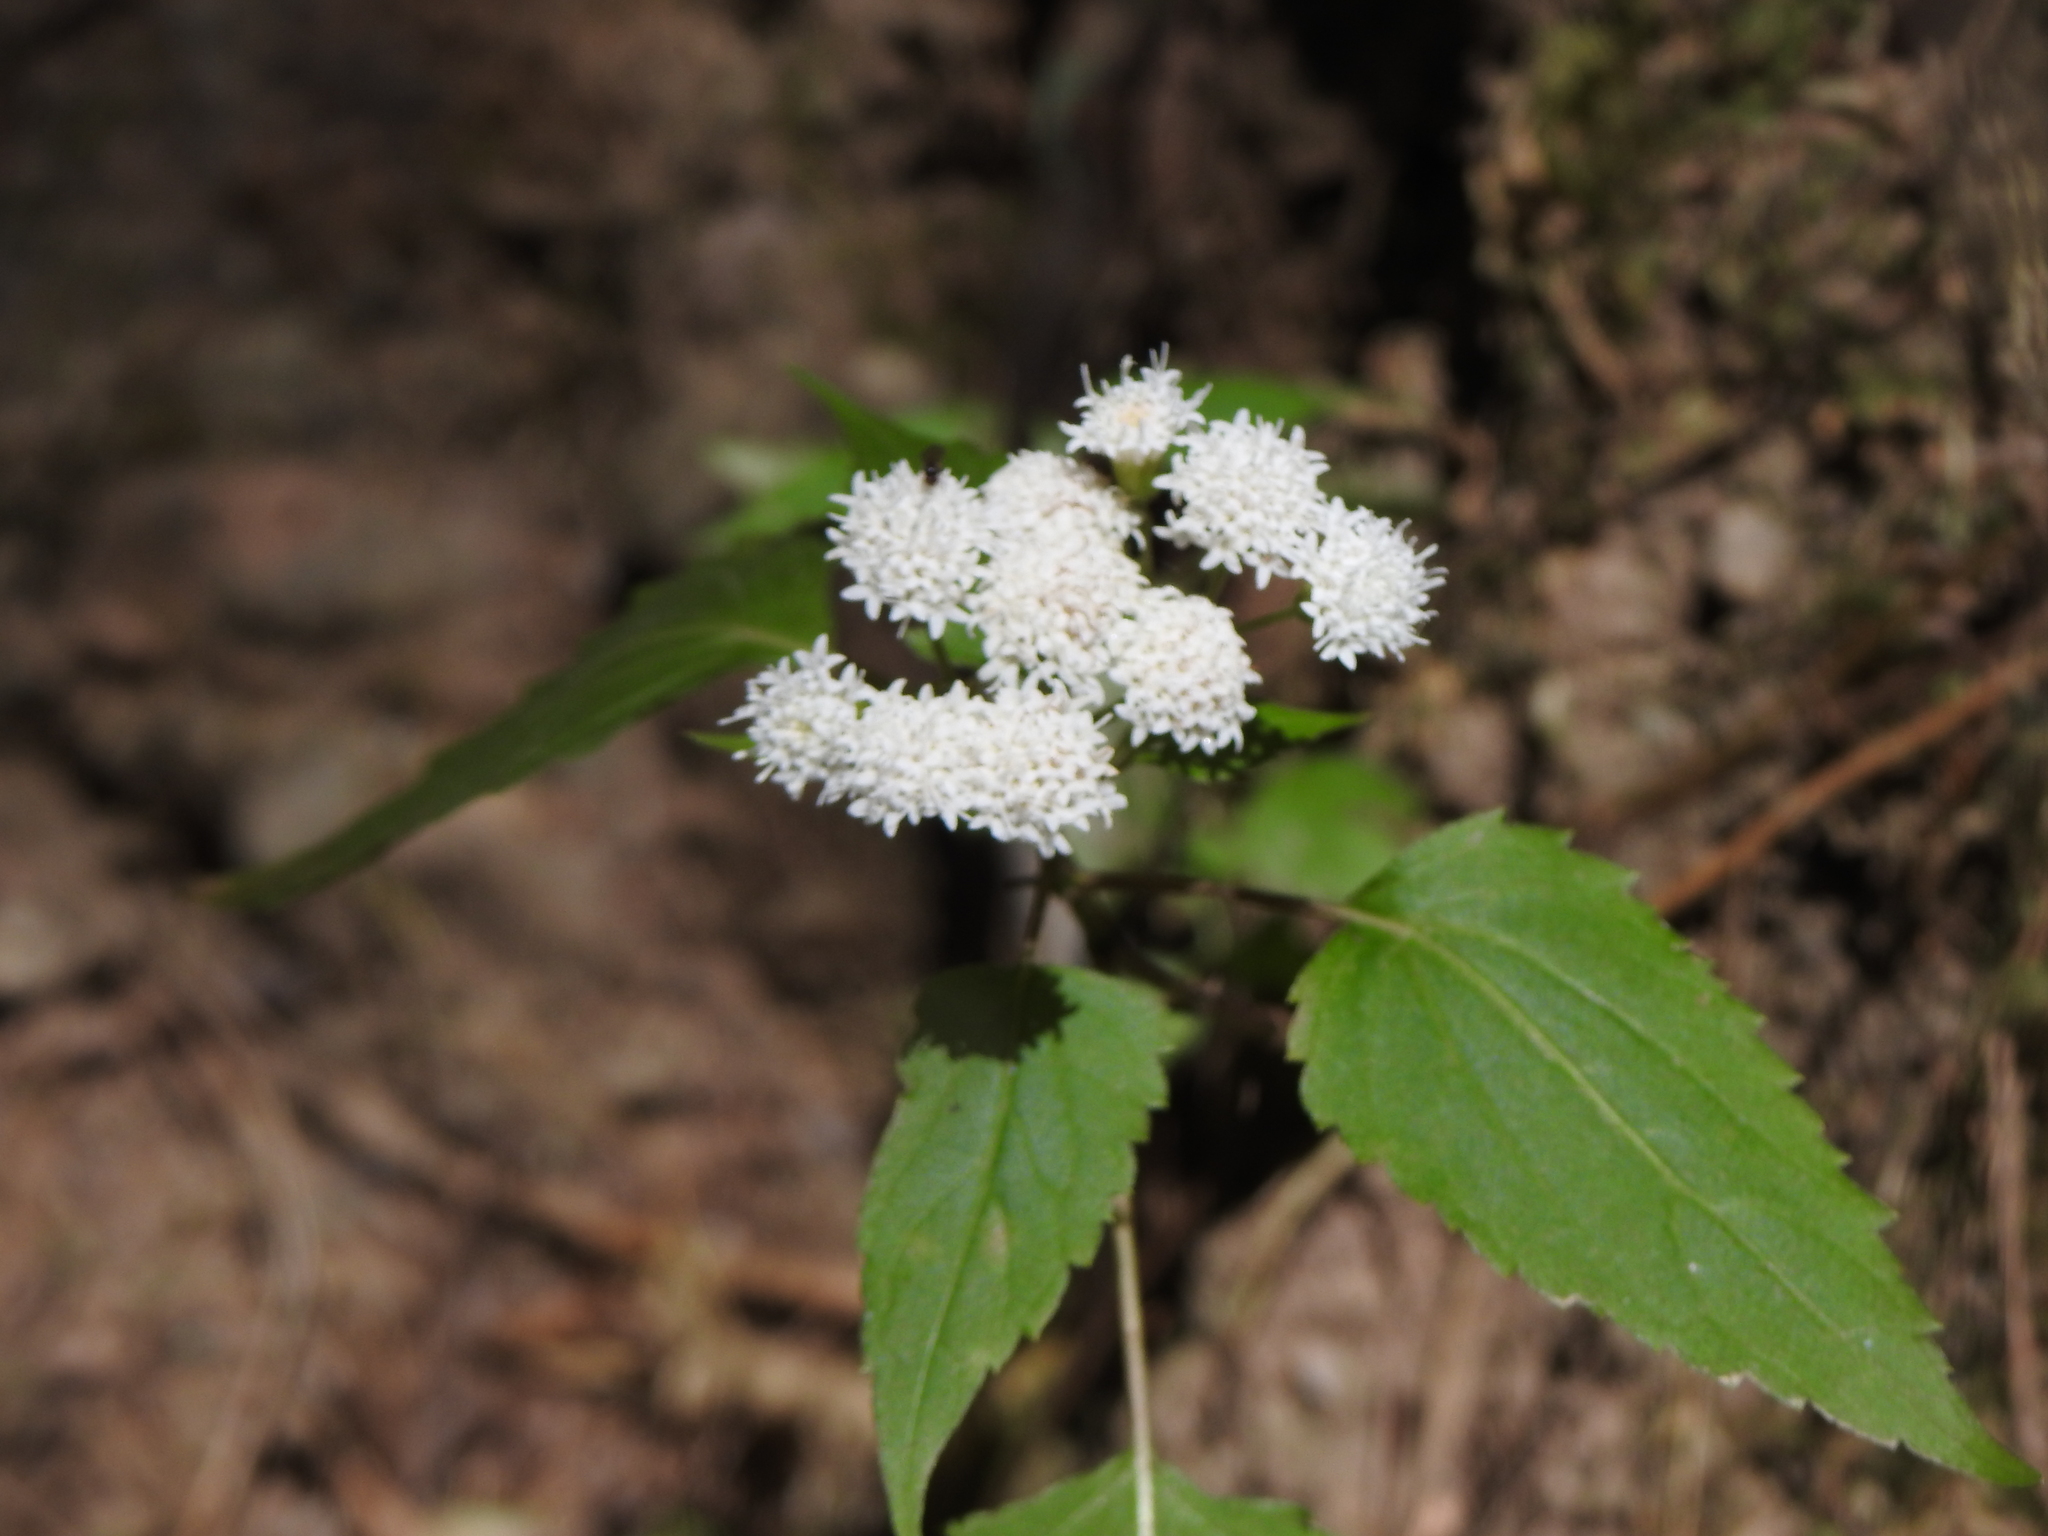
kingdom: Plantae
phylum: Tracheophyta
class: Magnoliopsida
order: Asterales
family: Asteraceae
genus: Ageratina
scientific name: Ageratina tenuis
